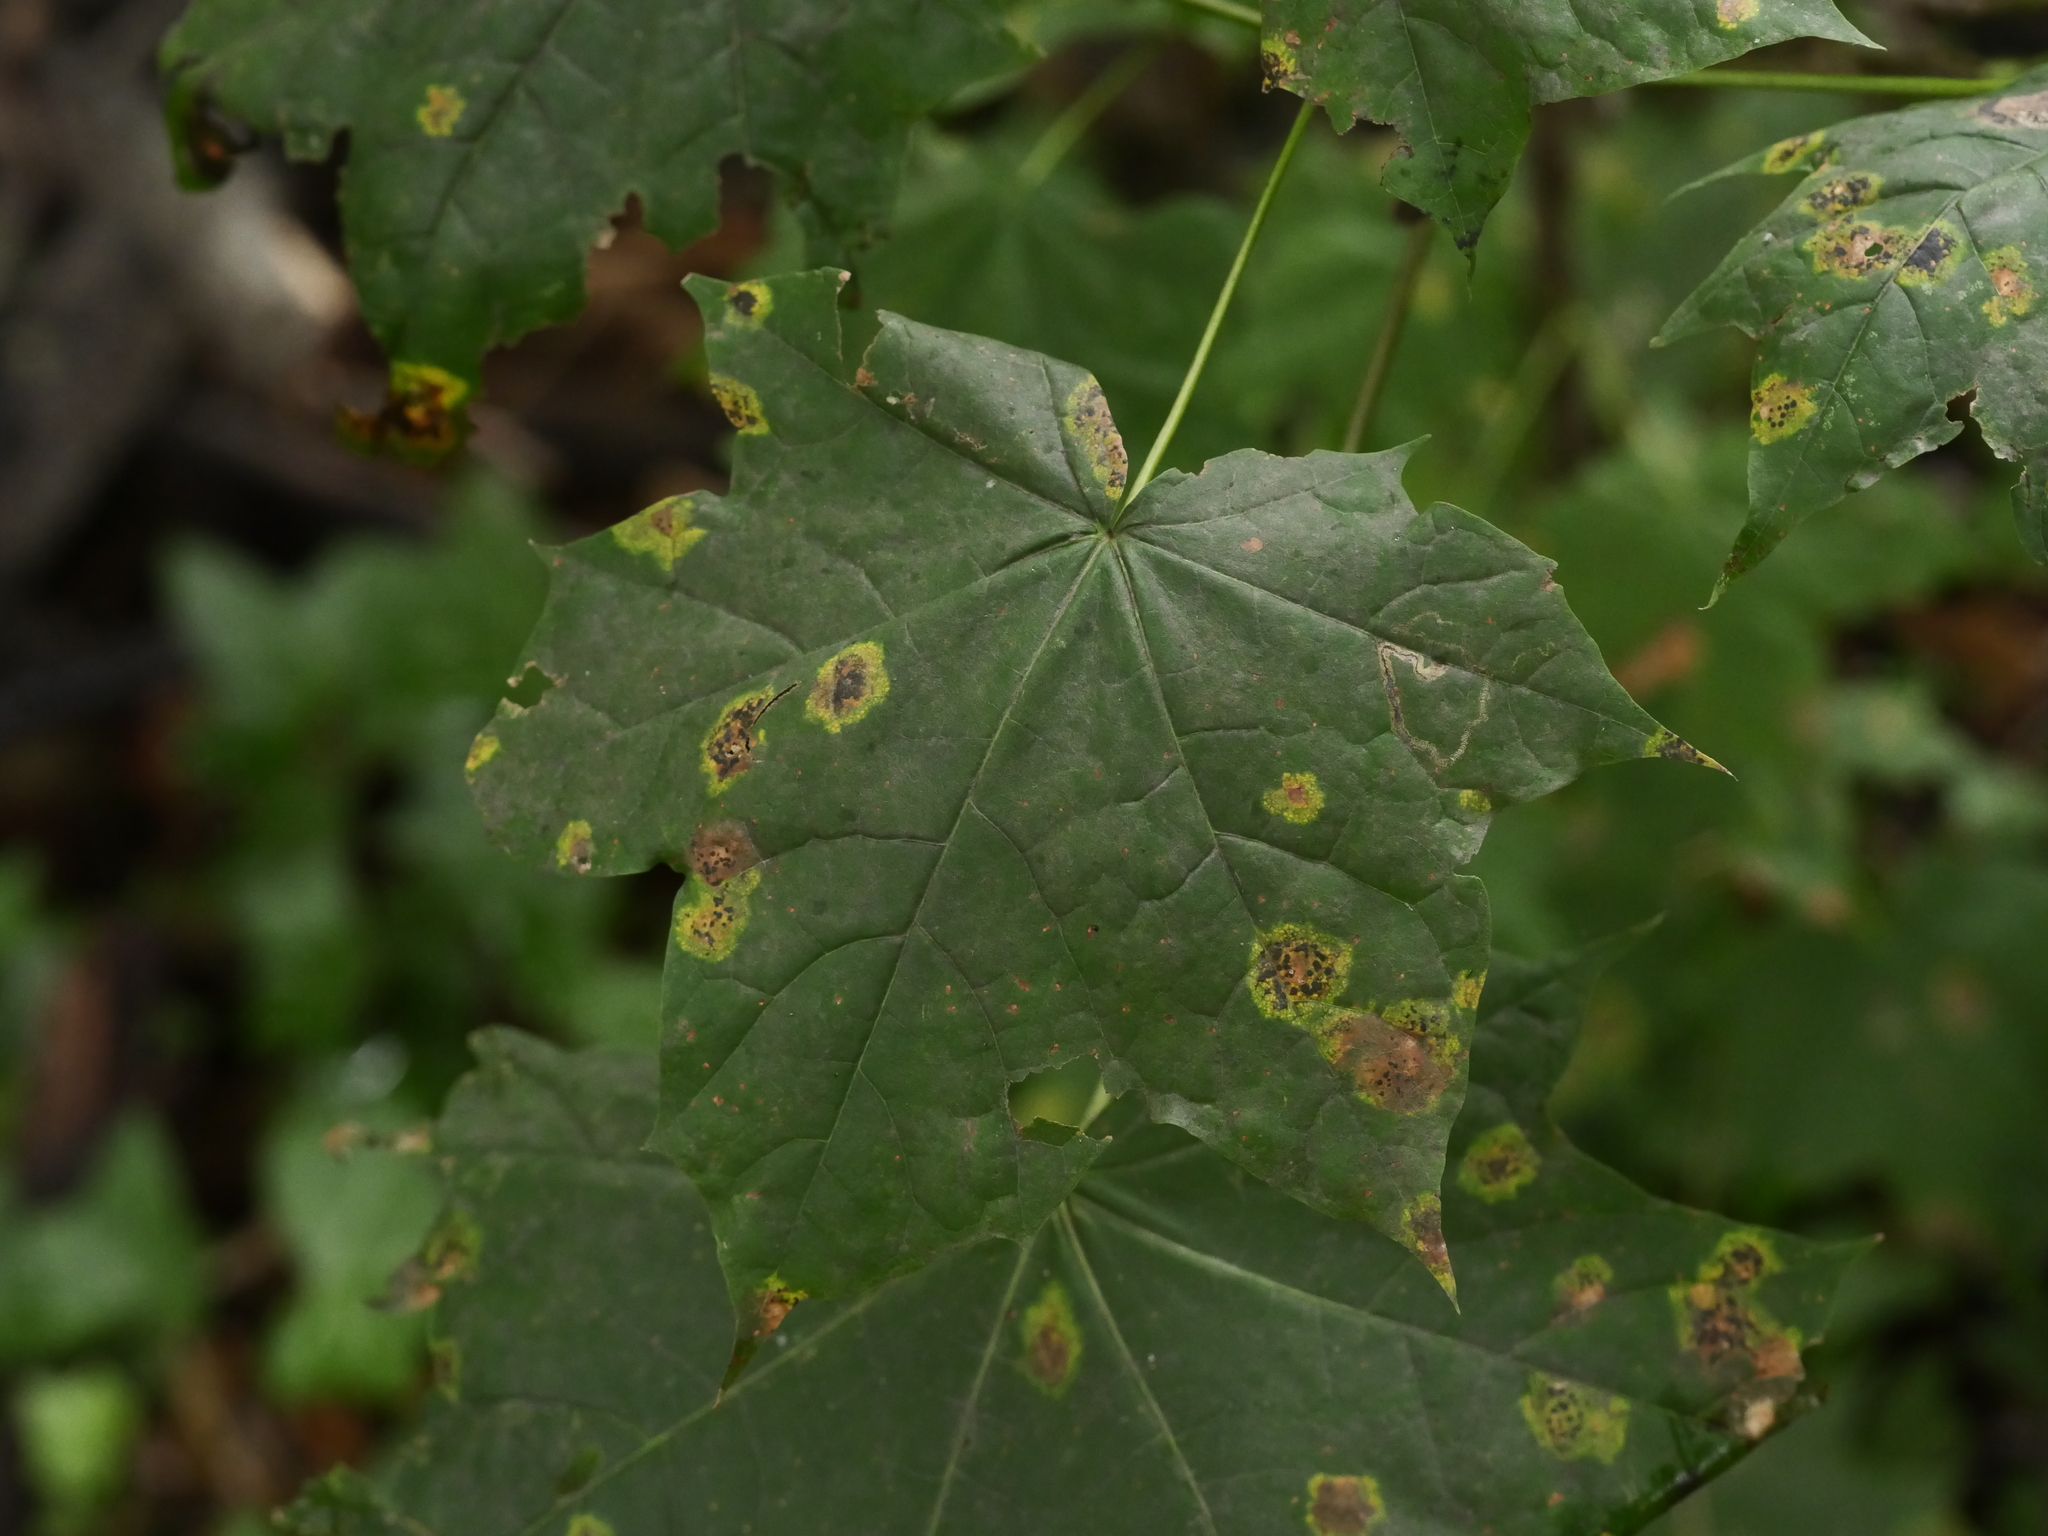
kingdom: Plantae
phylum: Tracheophyta
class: Magnoliopsida
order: Sapindales
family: Sapindaceae
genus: Acer
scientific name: Acer platanoides
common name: Norway maple
